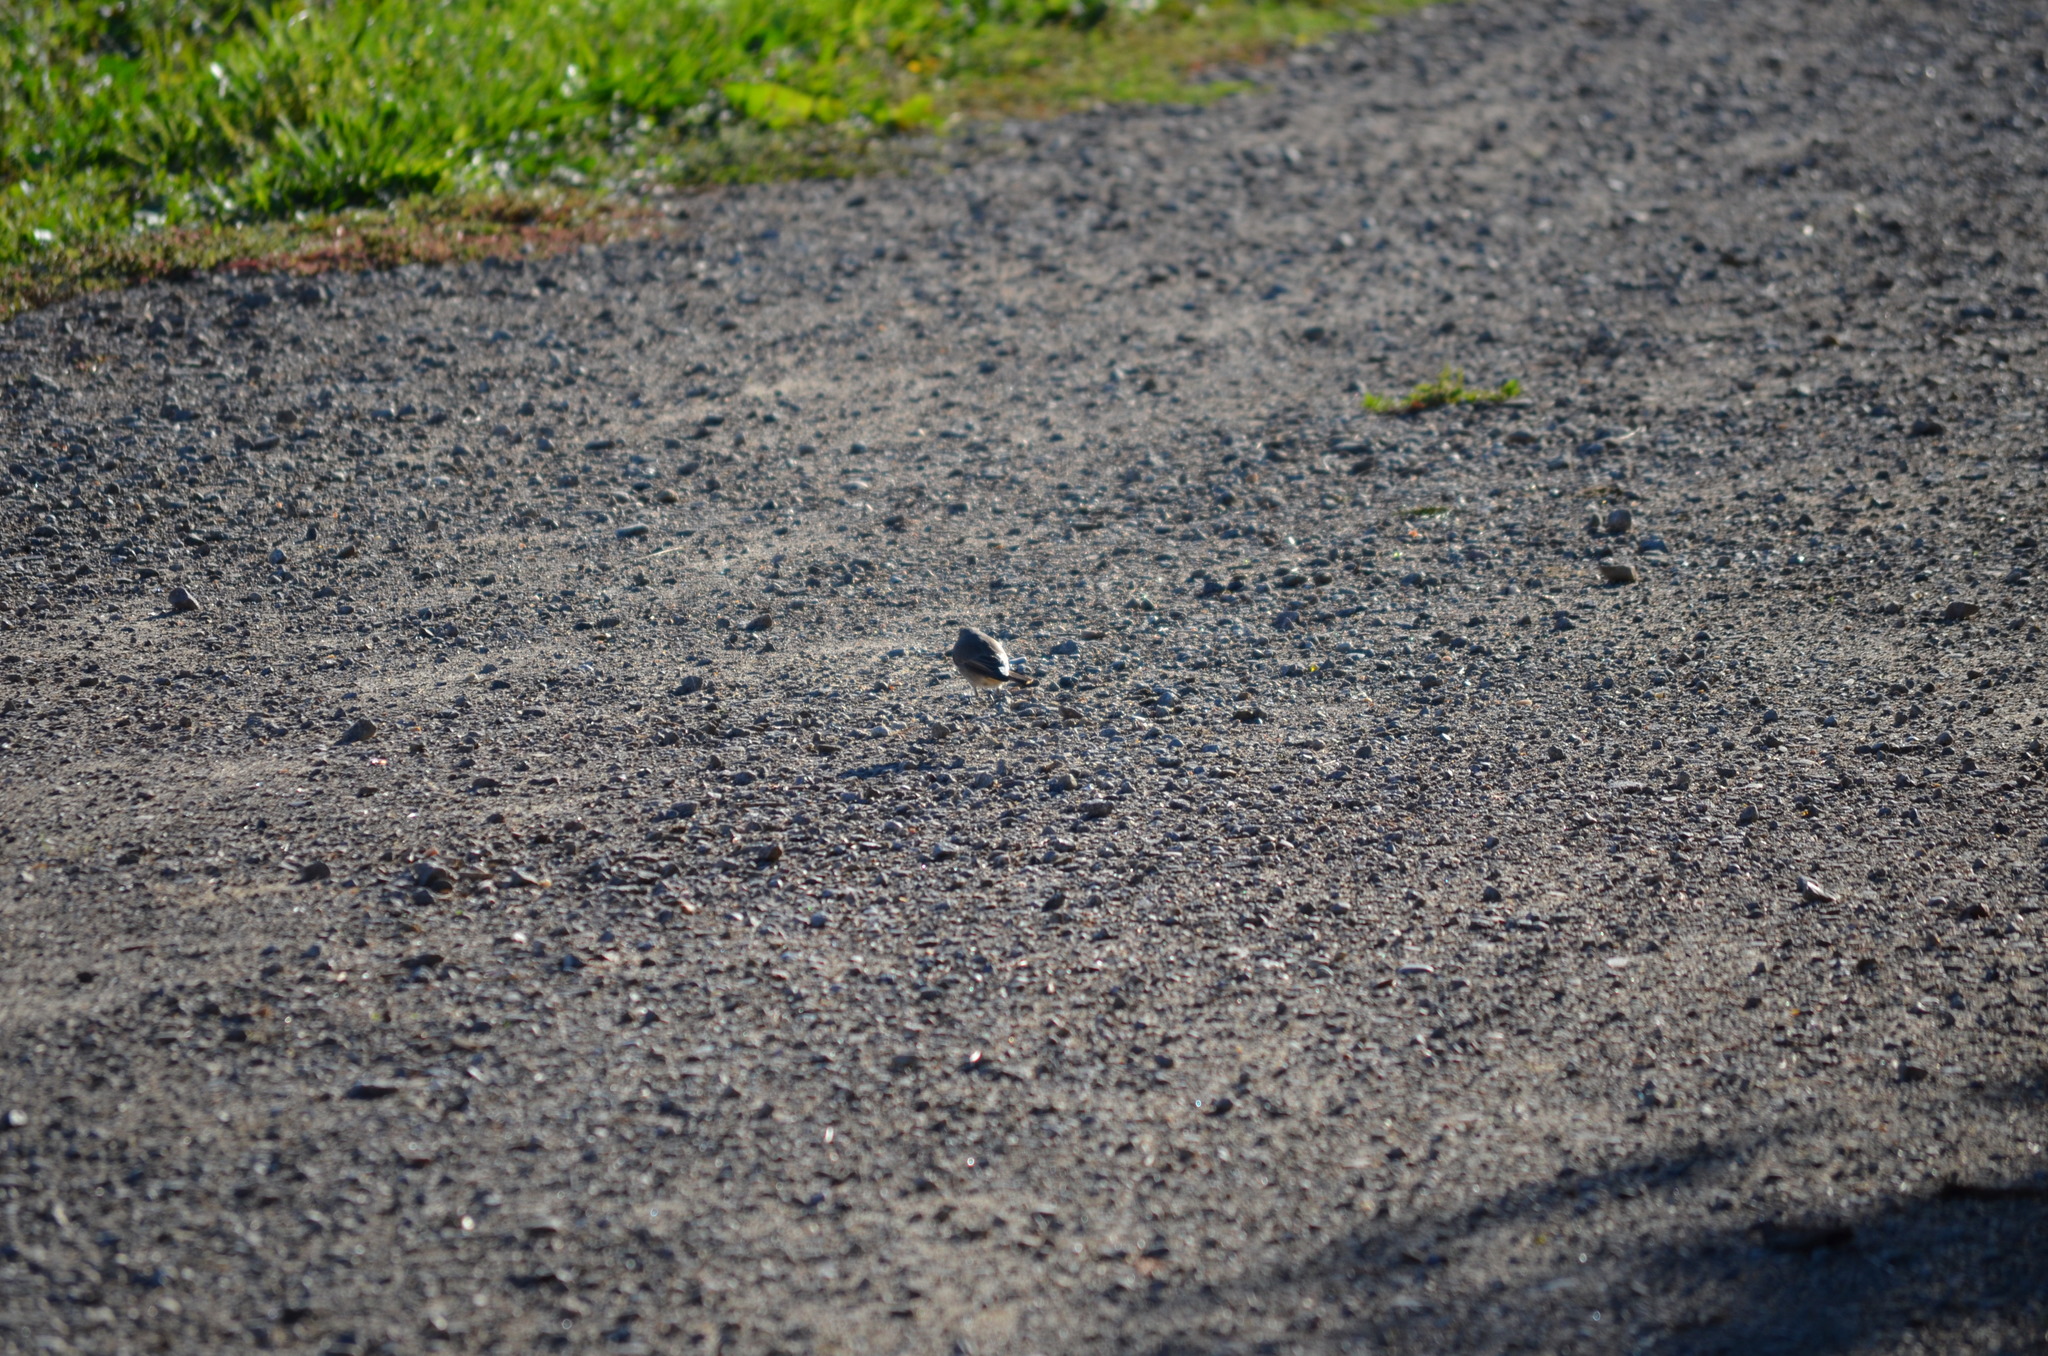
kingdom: Animalia
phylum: Chordata
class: Aves
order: Passeriformes
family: Muscicapidae
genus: Phoenicurus
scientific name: Phoenicurus ochruros
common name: Black redstart
